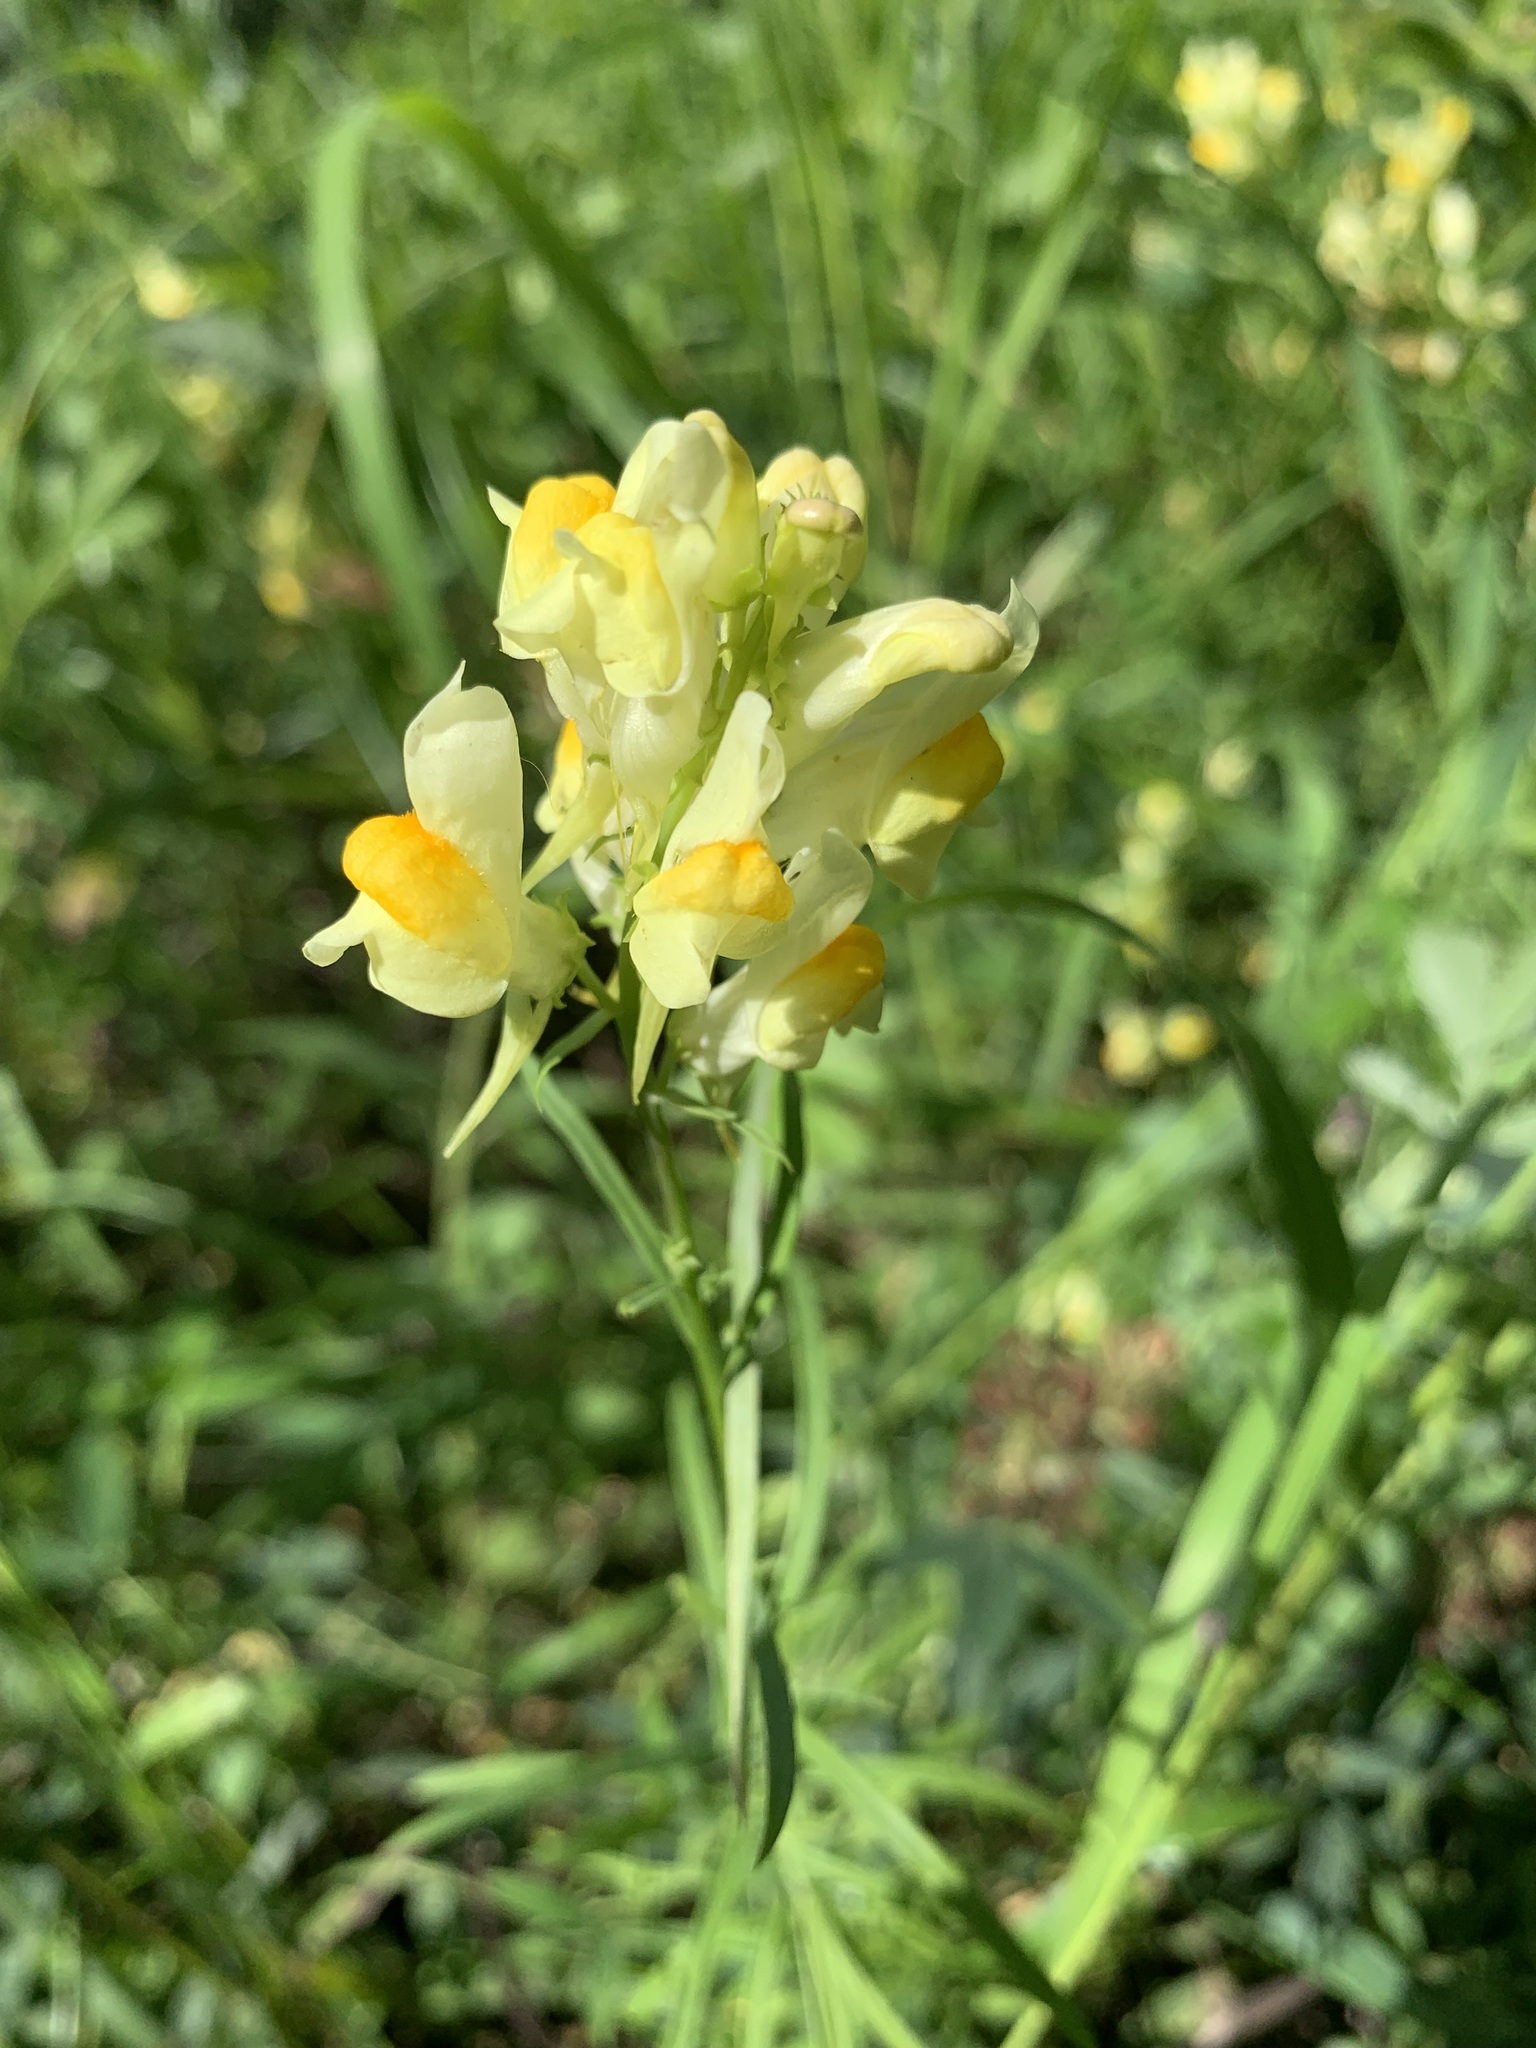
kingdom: Plantae
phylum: Tracheophyta
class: Magnoliopsida
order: Lamiales
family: Plantaginaceae
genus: Linaria
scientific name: Linaria vulgaris
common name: Butter and eggs
